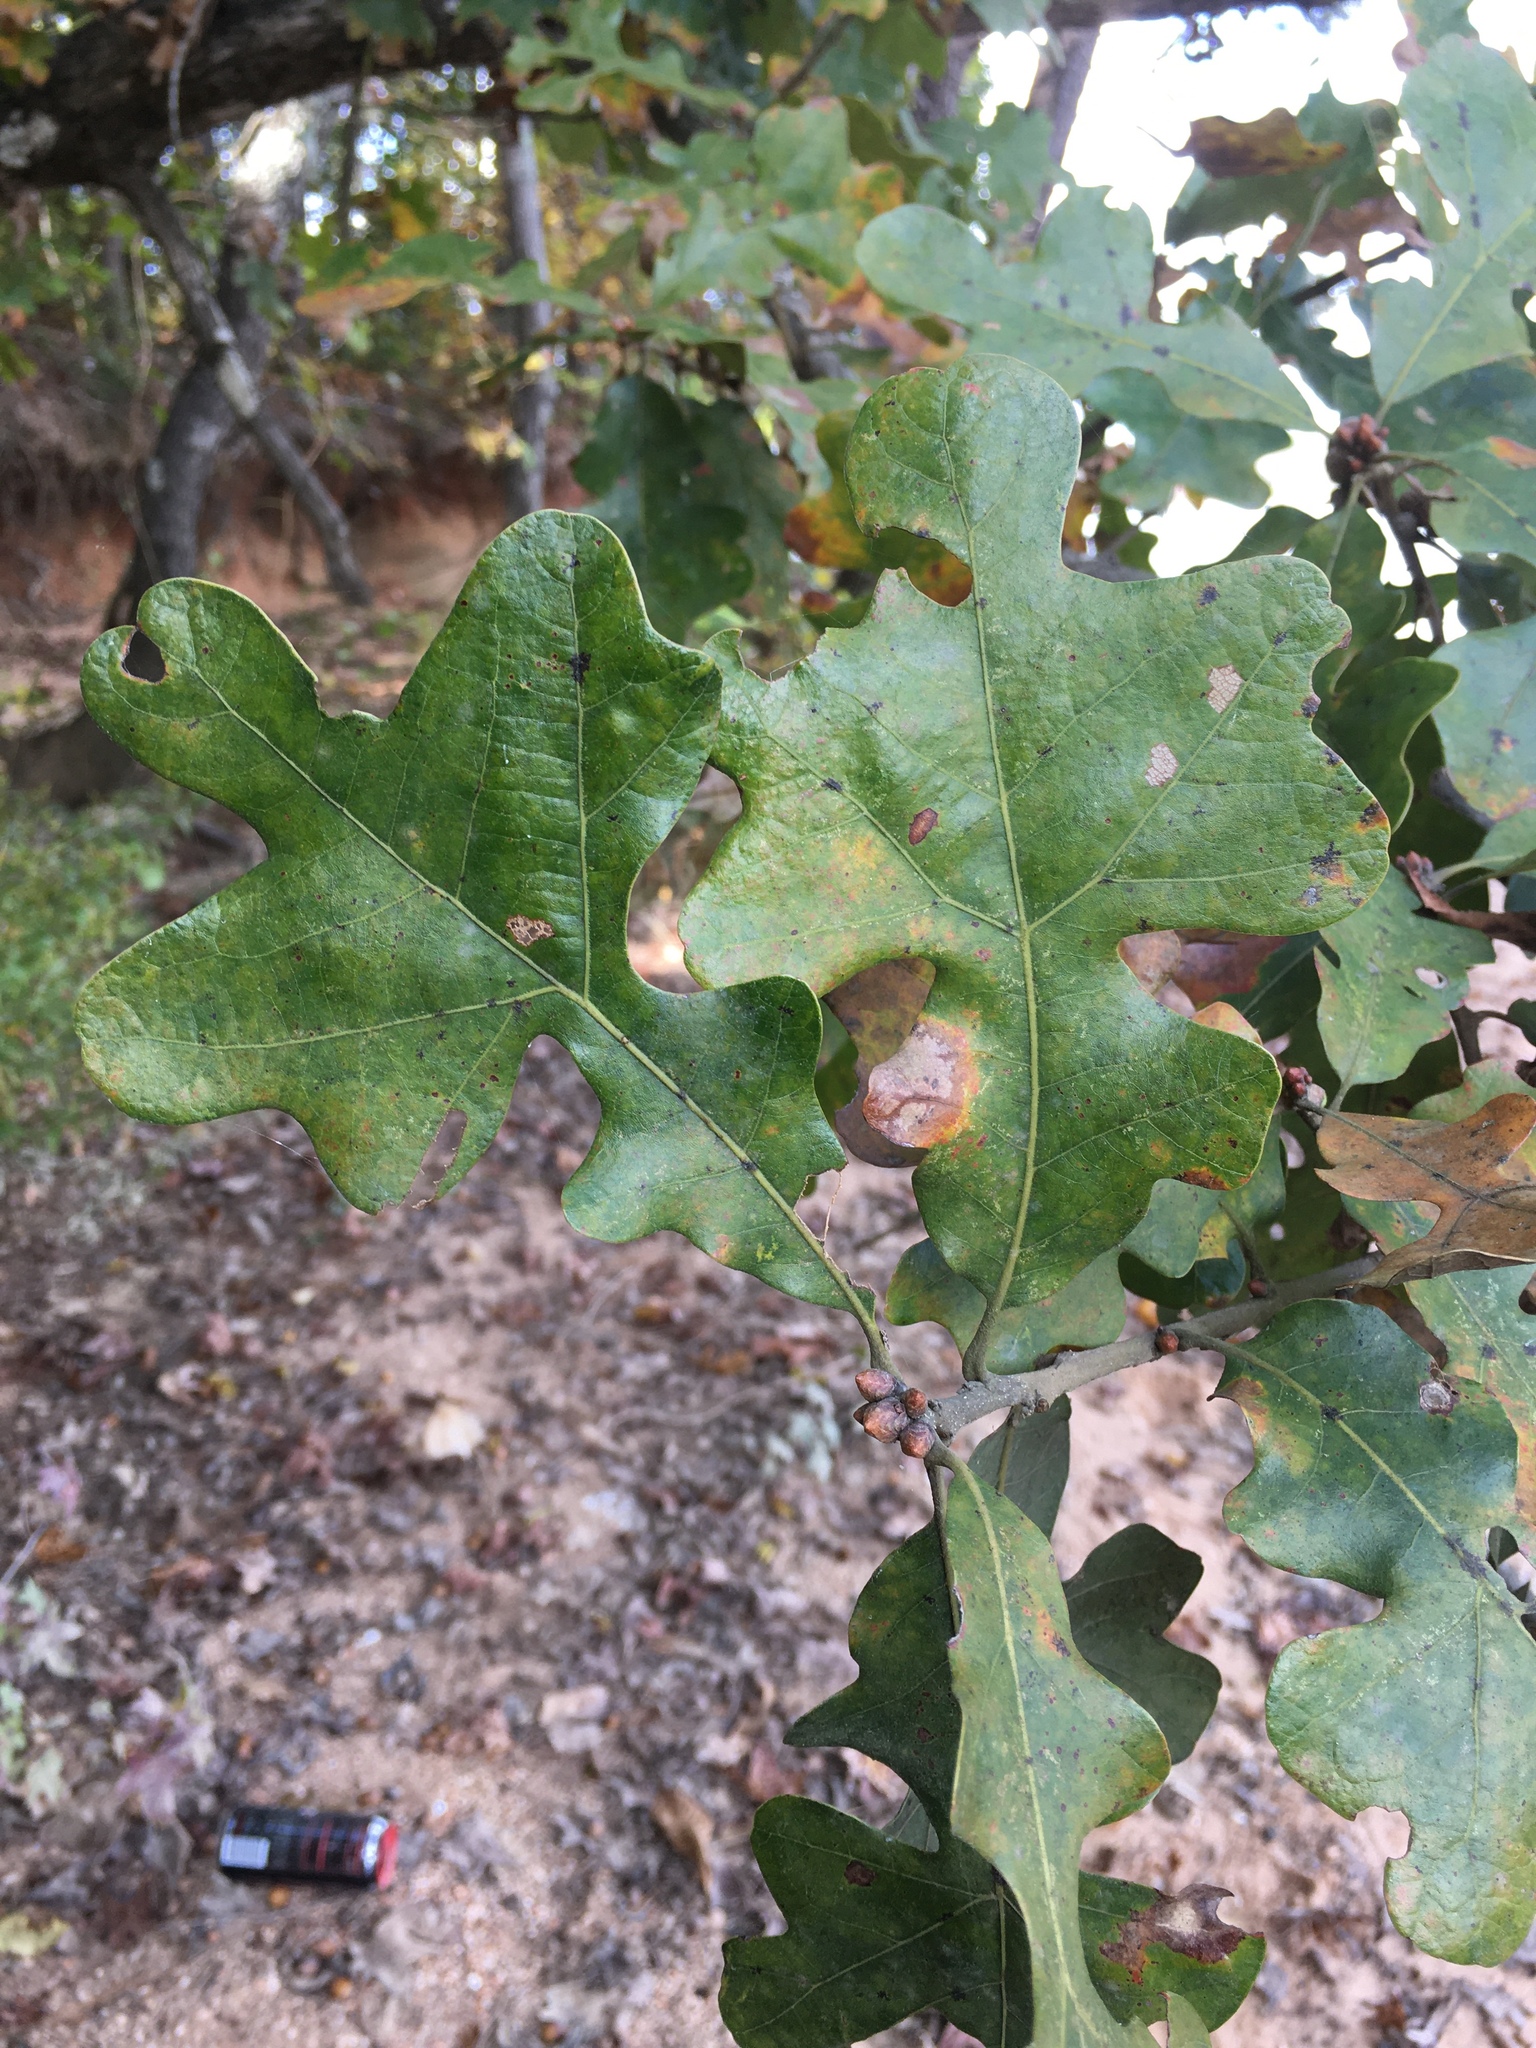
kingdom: Plantae
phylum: Tracheophyta
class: Magnoliopsida
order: Fagales
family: Fagaceae
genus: Quercus
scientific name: Quercus stellata
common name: Post oak
